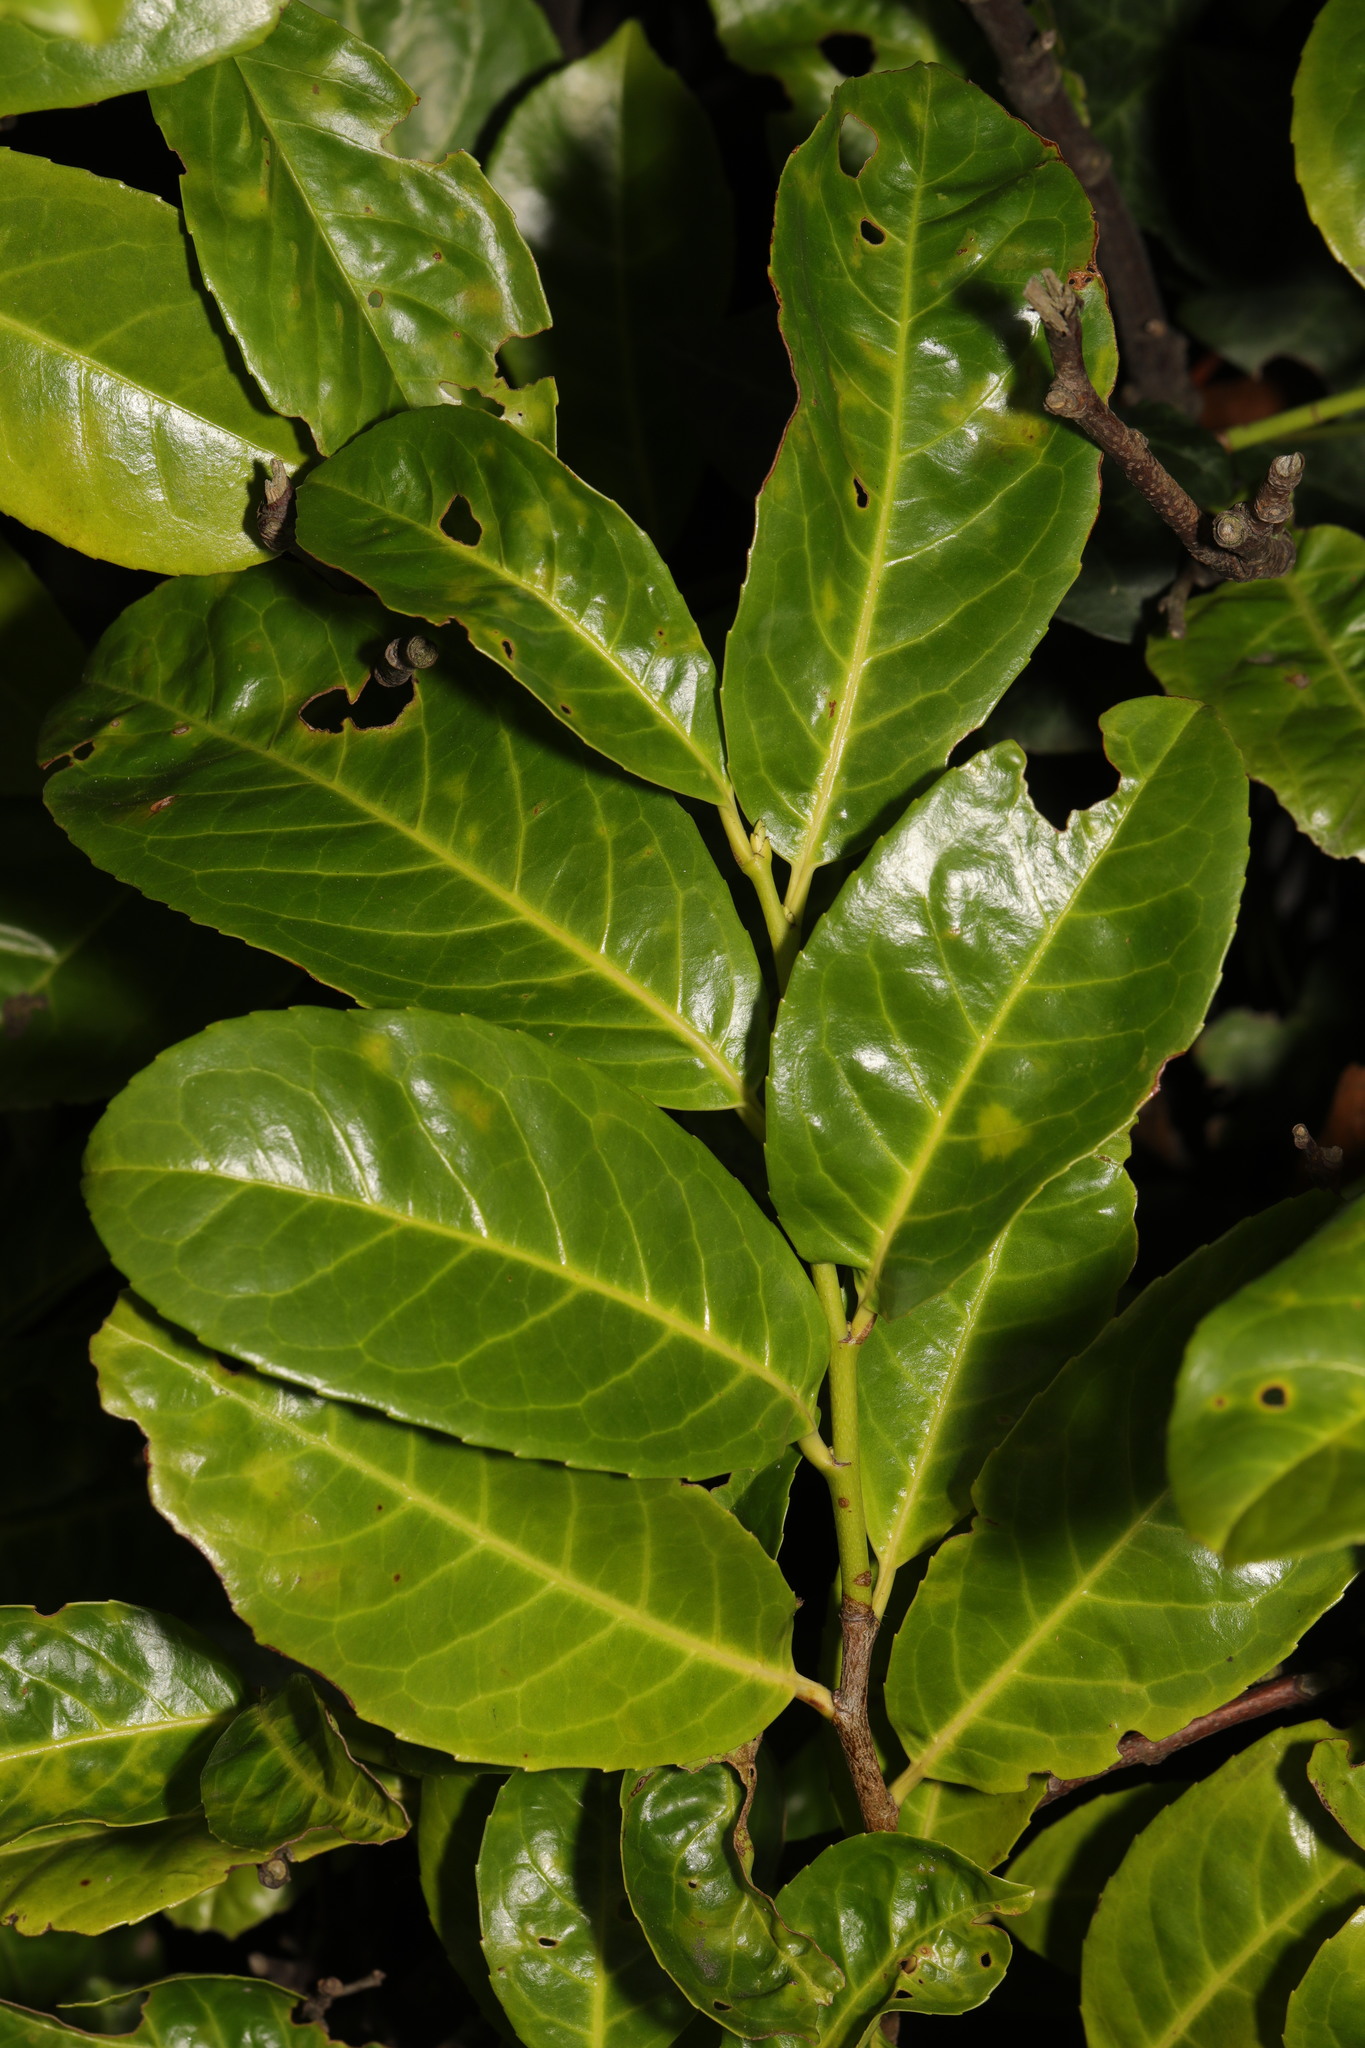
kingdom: Plantae
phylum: Tracheophyta
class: Magnoliopsida
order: Rosales
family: Rosaceae
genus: Prunus
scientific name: Prunus laurocerasus
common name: Cherry laurel
